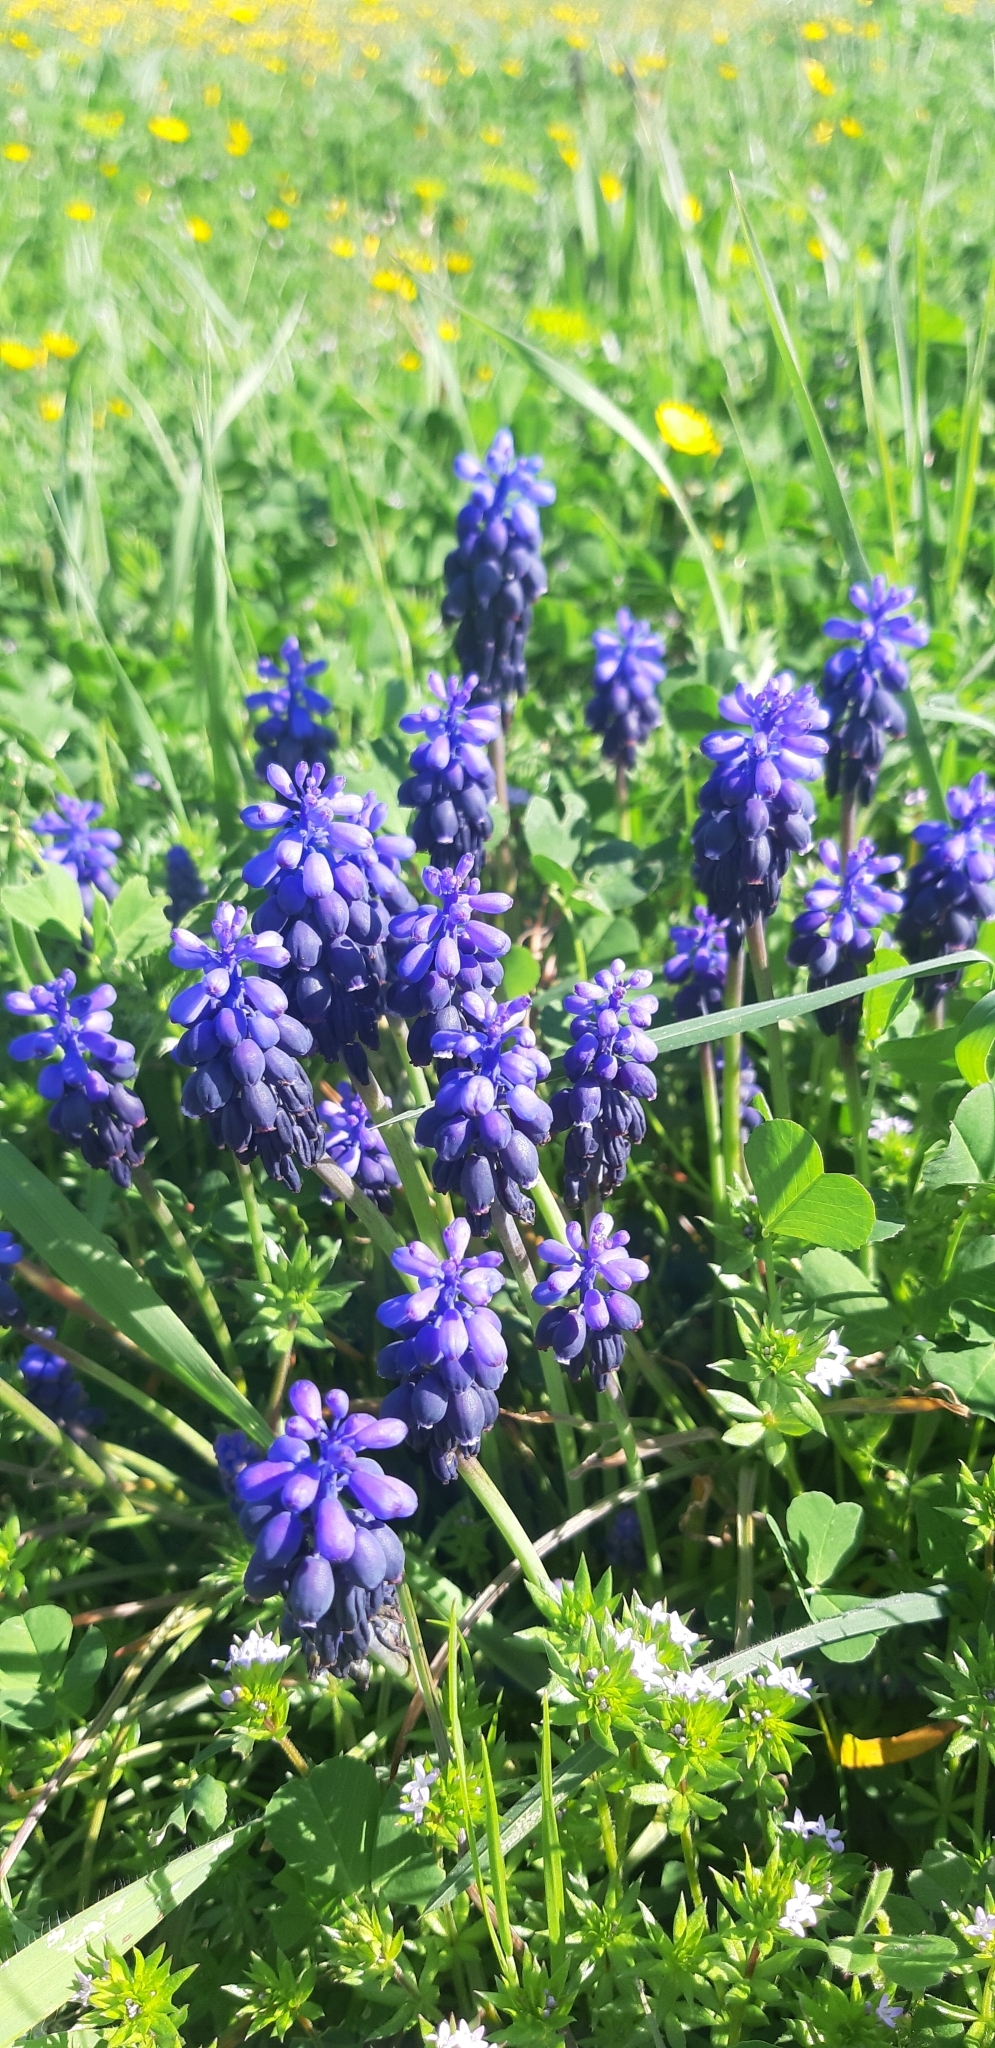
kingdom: Plantae
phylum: Tracheophyta
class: Liliopsida
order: Asparagales
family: Asparagaceae
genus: Muscari
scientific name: Muscari neglectum
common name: Grape-hyacinth
